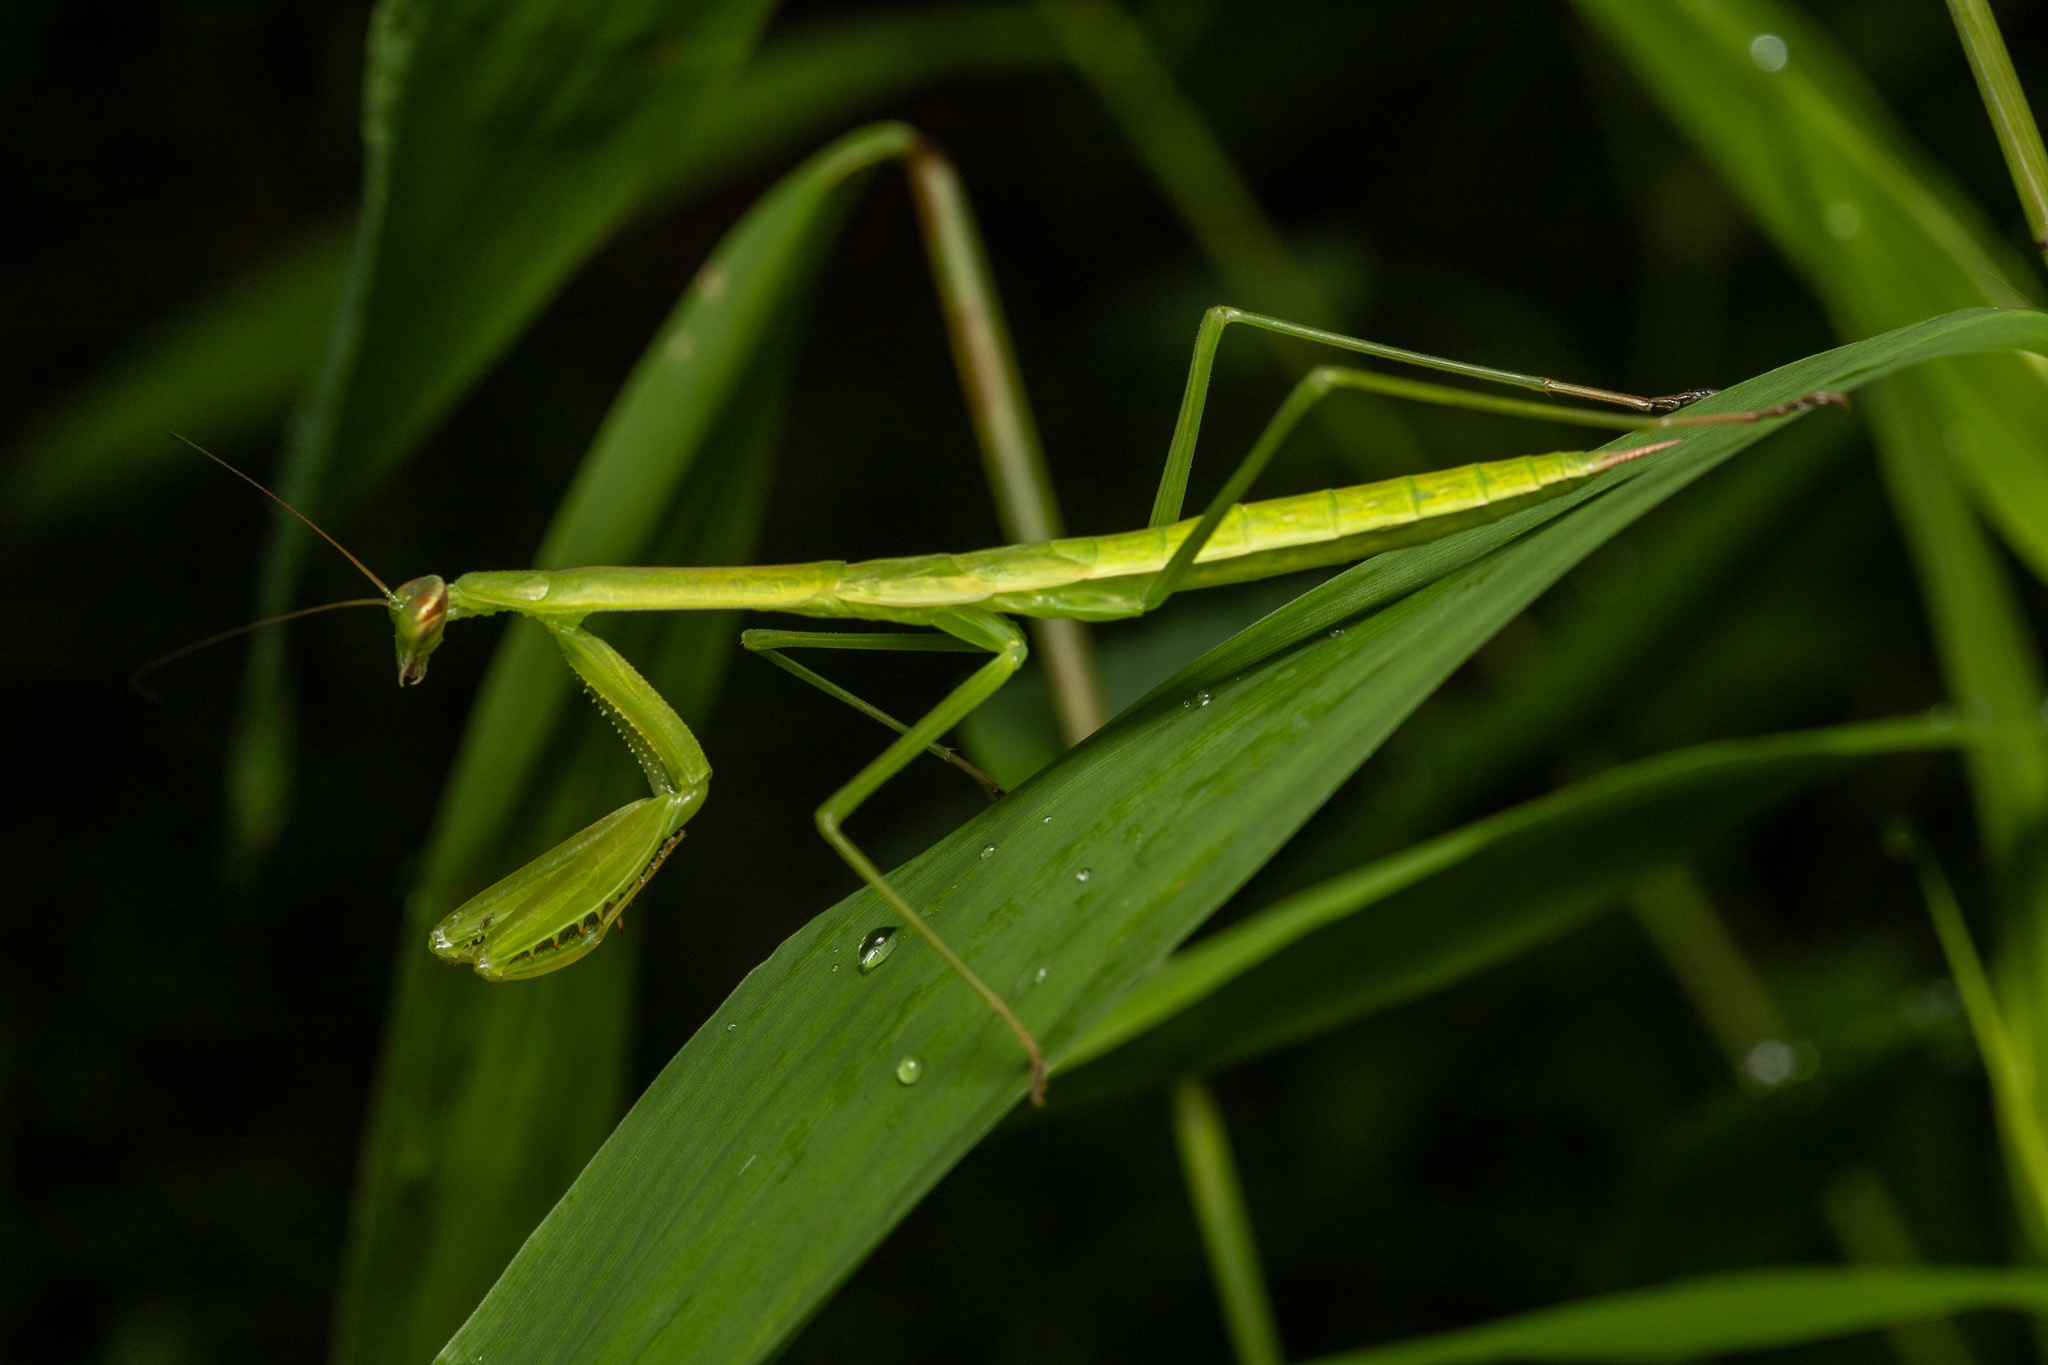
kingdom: Animalia
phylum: Arthropoda
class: Insecta
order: Mantodea
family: Mantidae
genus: Tenodera
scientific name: Tenodera sinensis
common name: Chinese mantis
